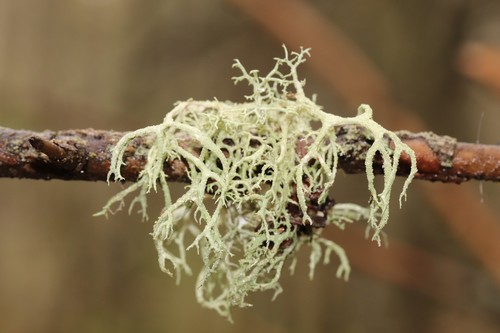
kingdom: Fungi
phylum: Ascomycota
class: Lecanoromycetes
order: Lecanorales
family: Parmeliaceae
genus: Evernia
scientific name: Evernia mesomorpha
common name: Boreal oak moss lichen
